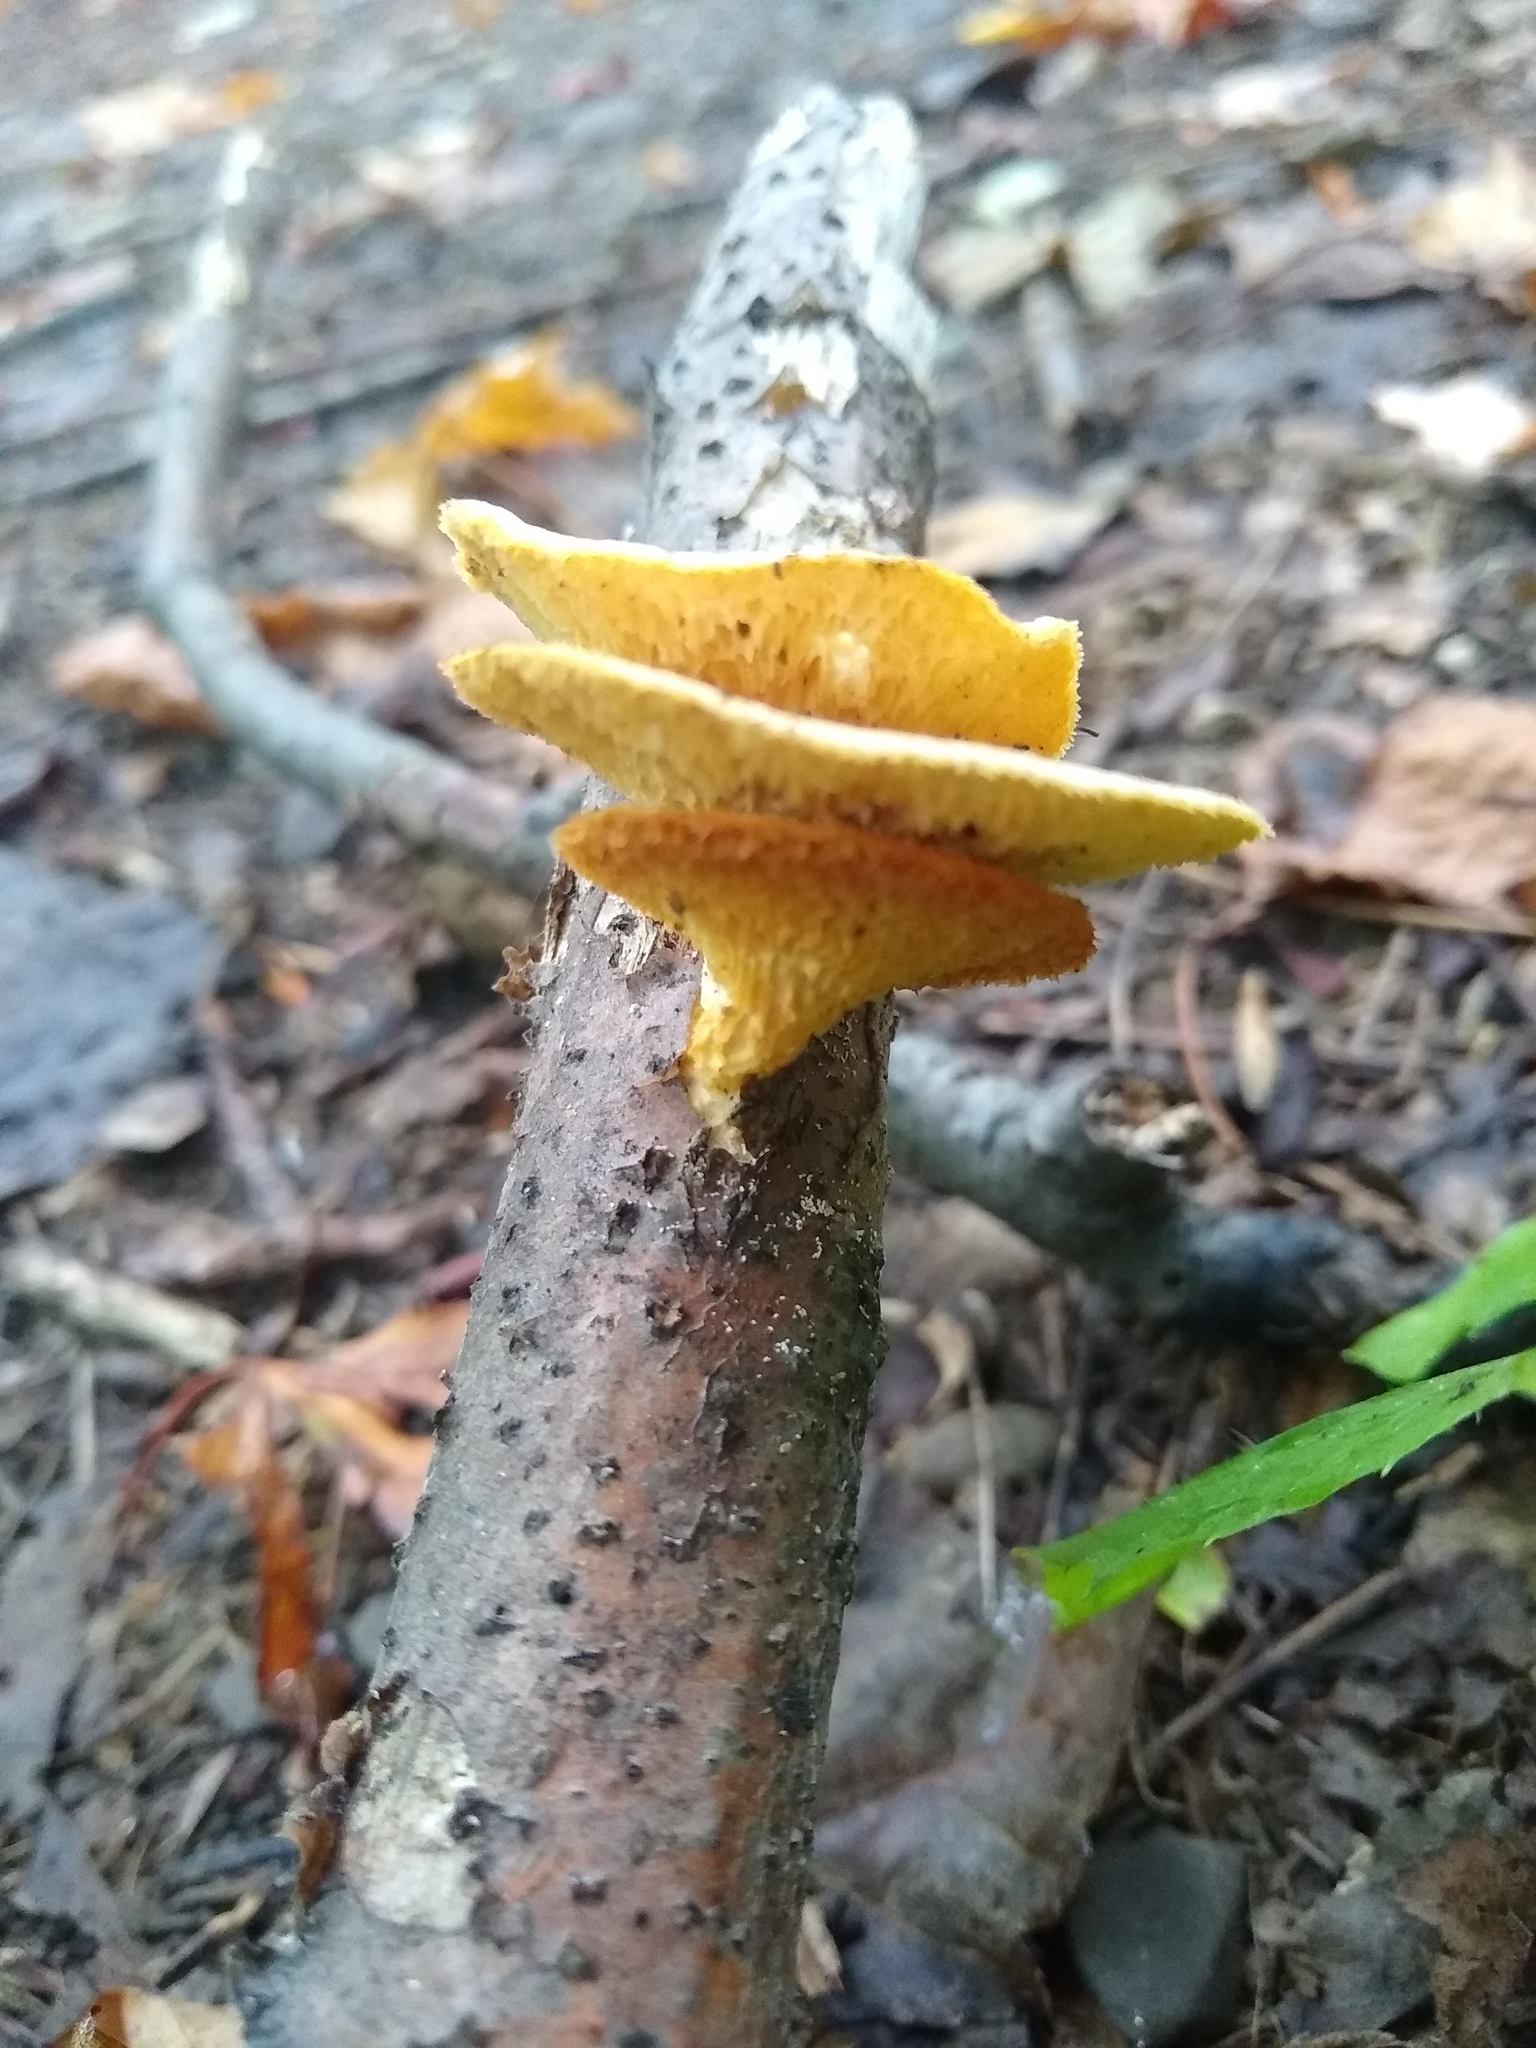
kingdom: Fungi
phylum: Basidiomycota
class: Agaricomycetes
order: Polyporales
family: Polyporaceae
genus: Neofavolus
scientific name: Neofavolus alveolaris
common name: Hexagonal-pored polypore
